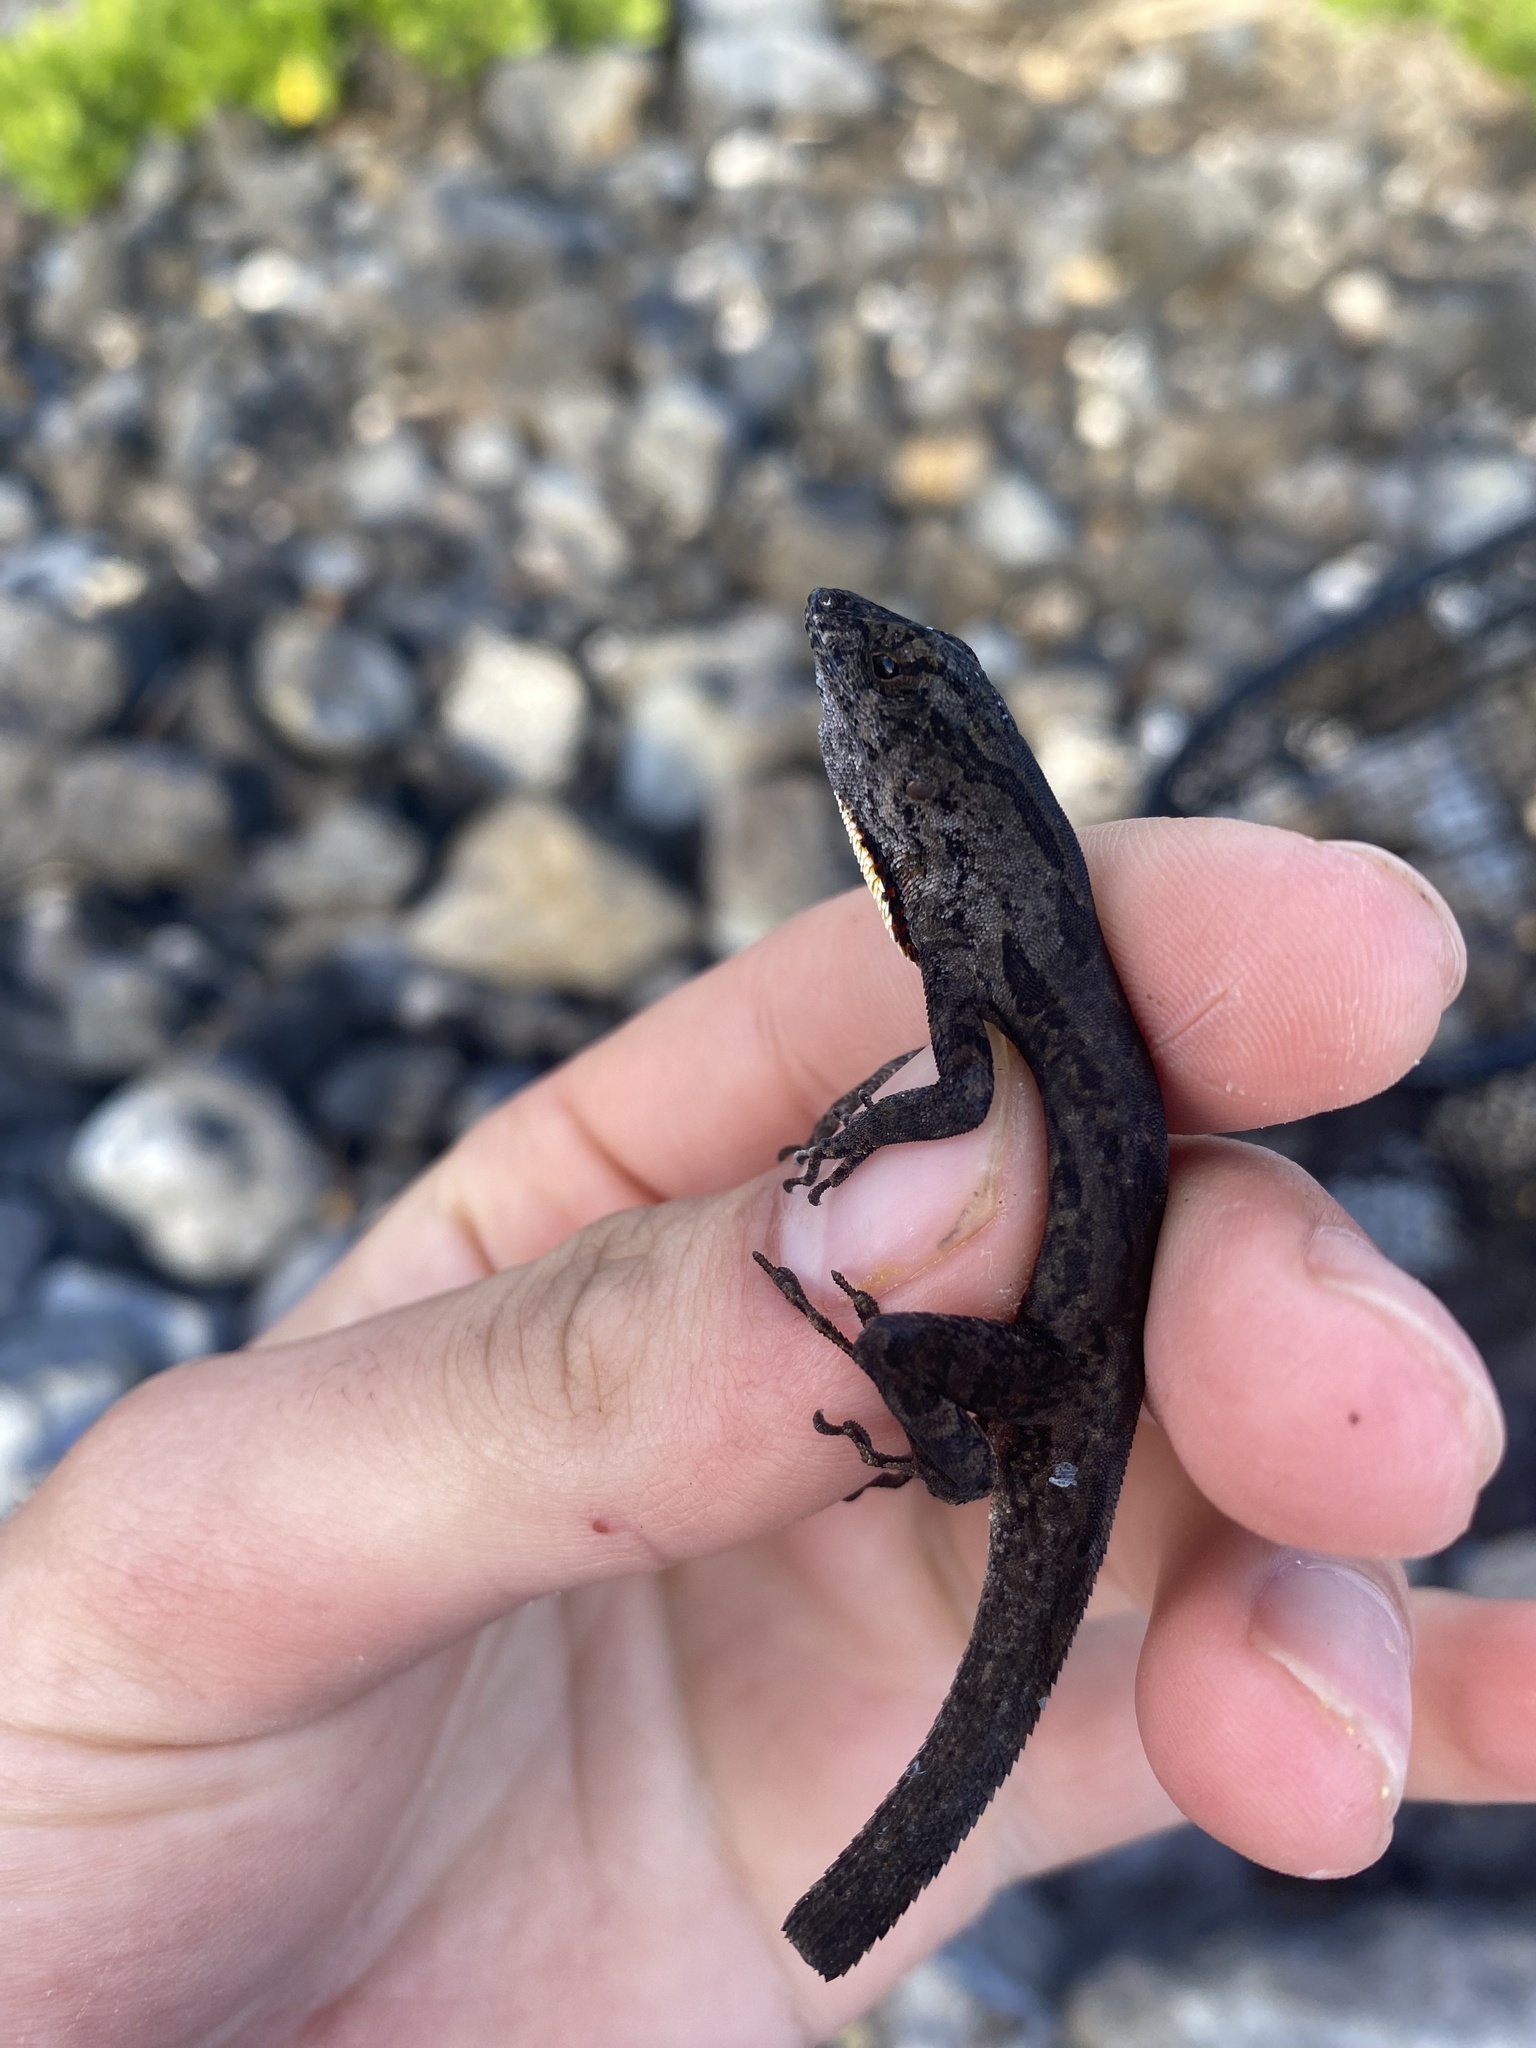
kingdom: Animalia
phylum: Chordata
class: Squamata
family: Dactyloidae
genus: Anolis
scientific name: Anolis sagrei
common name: Brown anole
